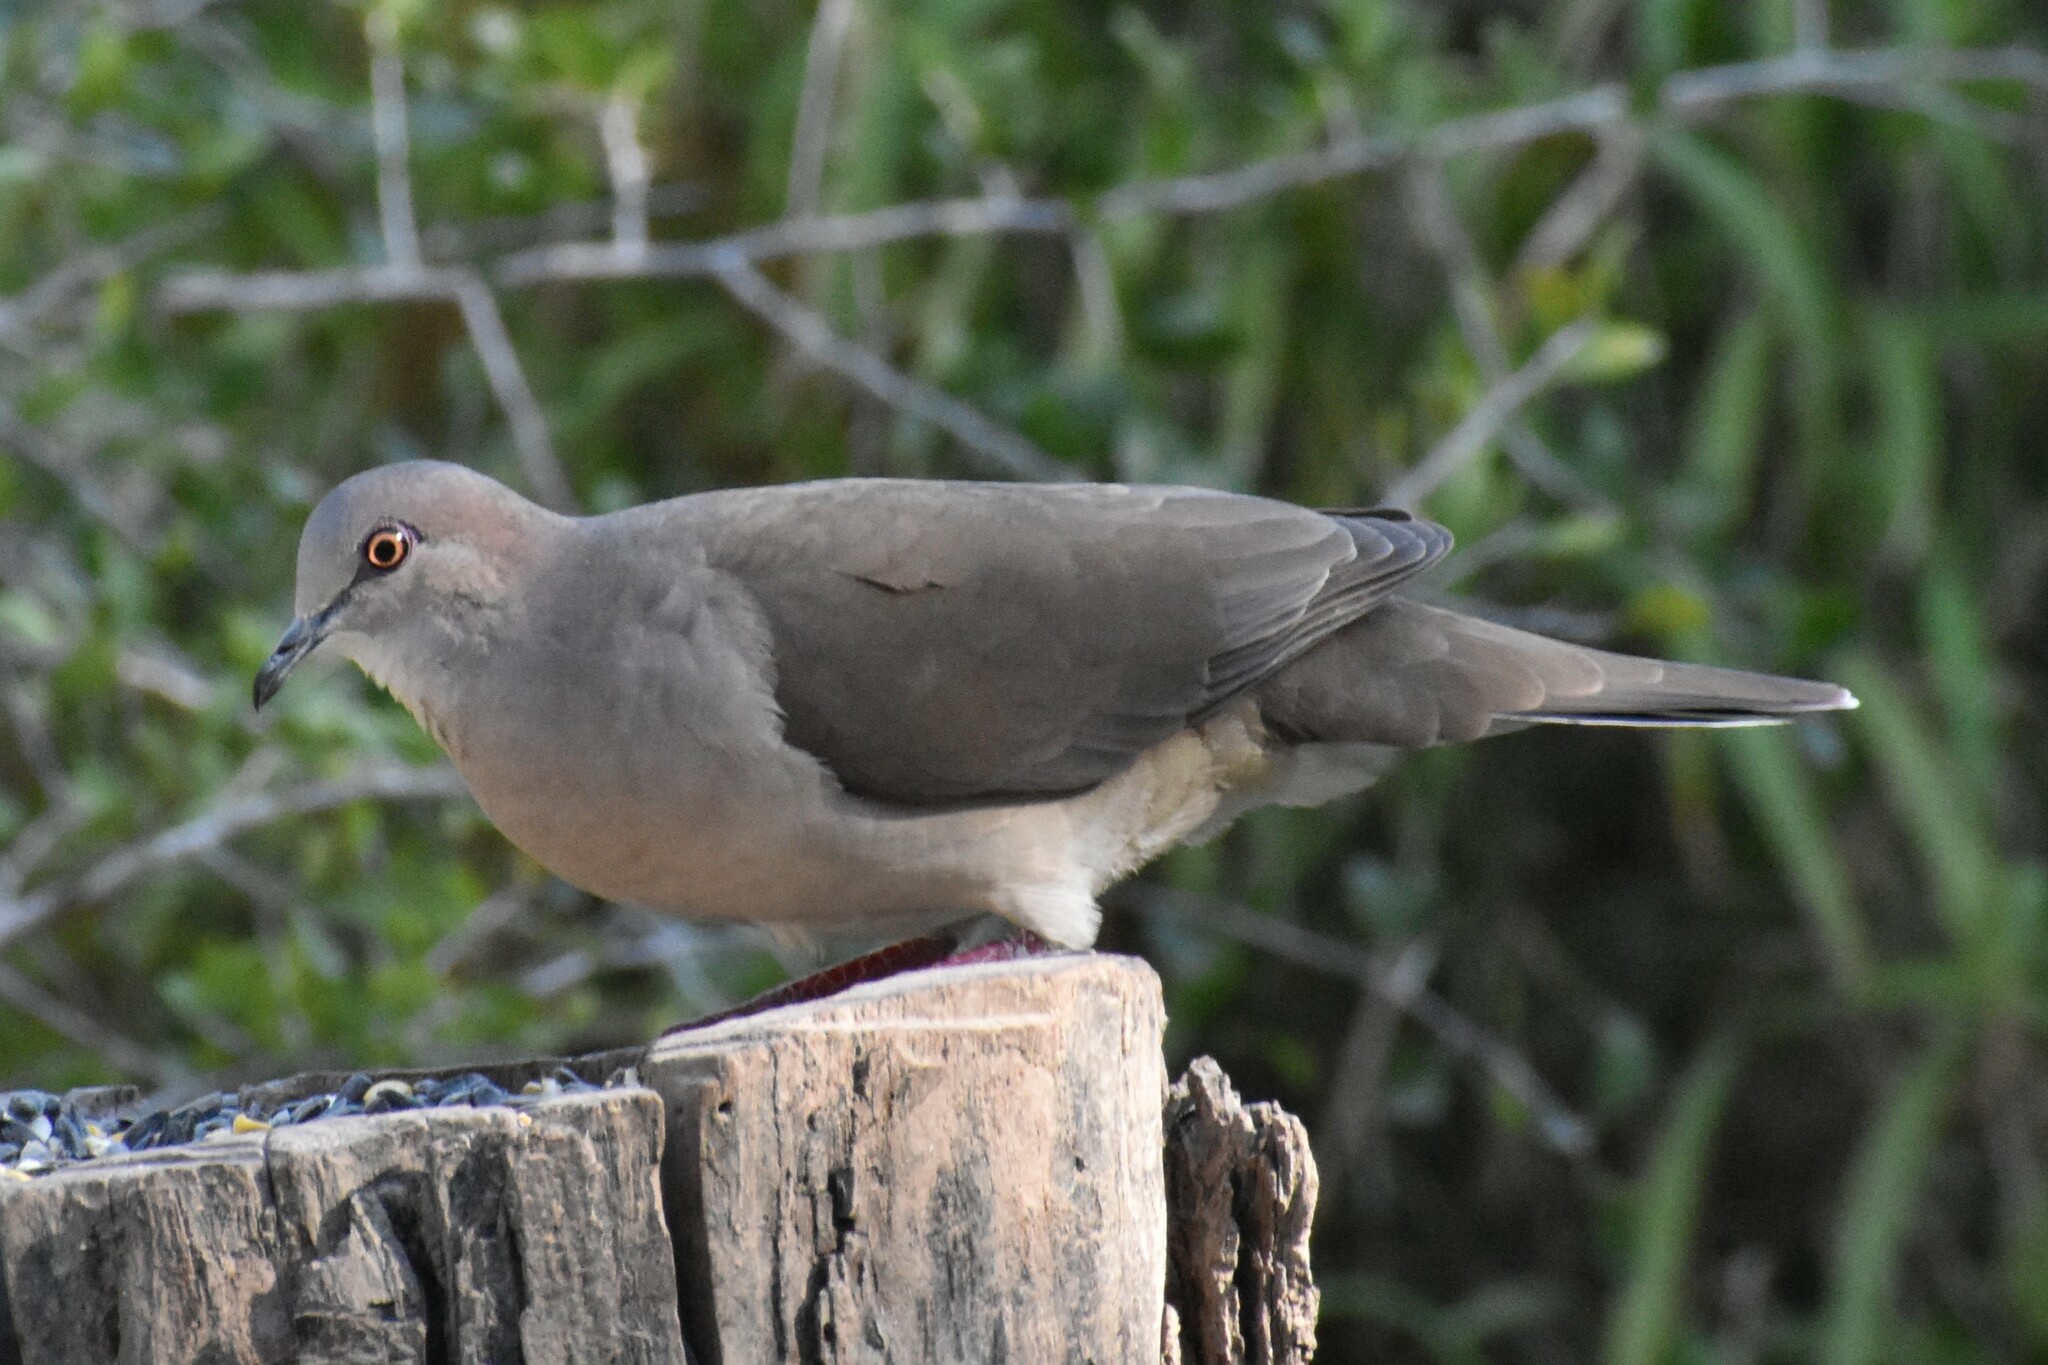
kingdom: Animalia
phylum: Chordata
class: Aves
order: Columbiformes
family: Columbidae
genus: Leptotila
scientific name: Leptotila verreauxi
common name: White-tipped dove
